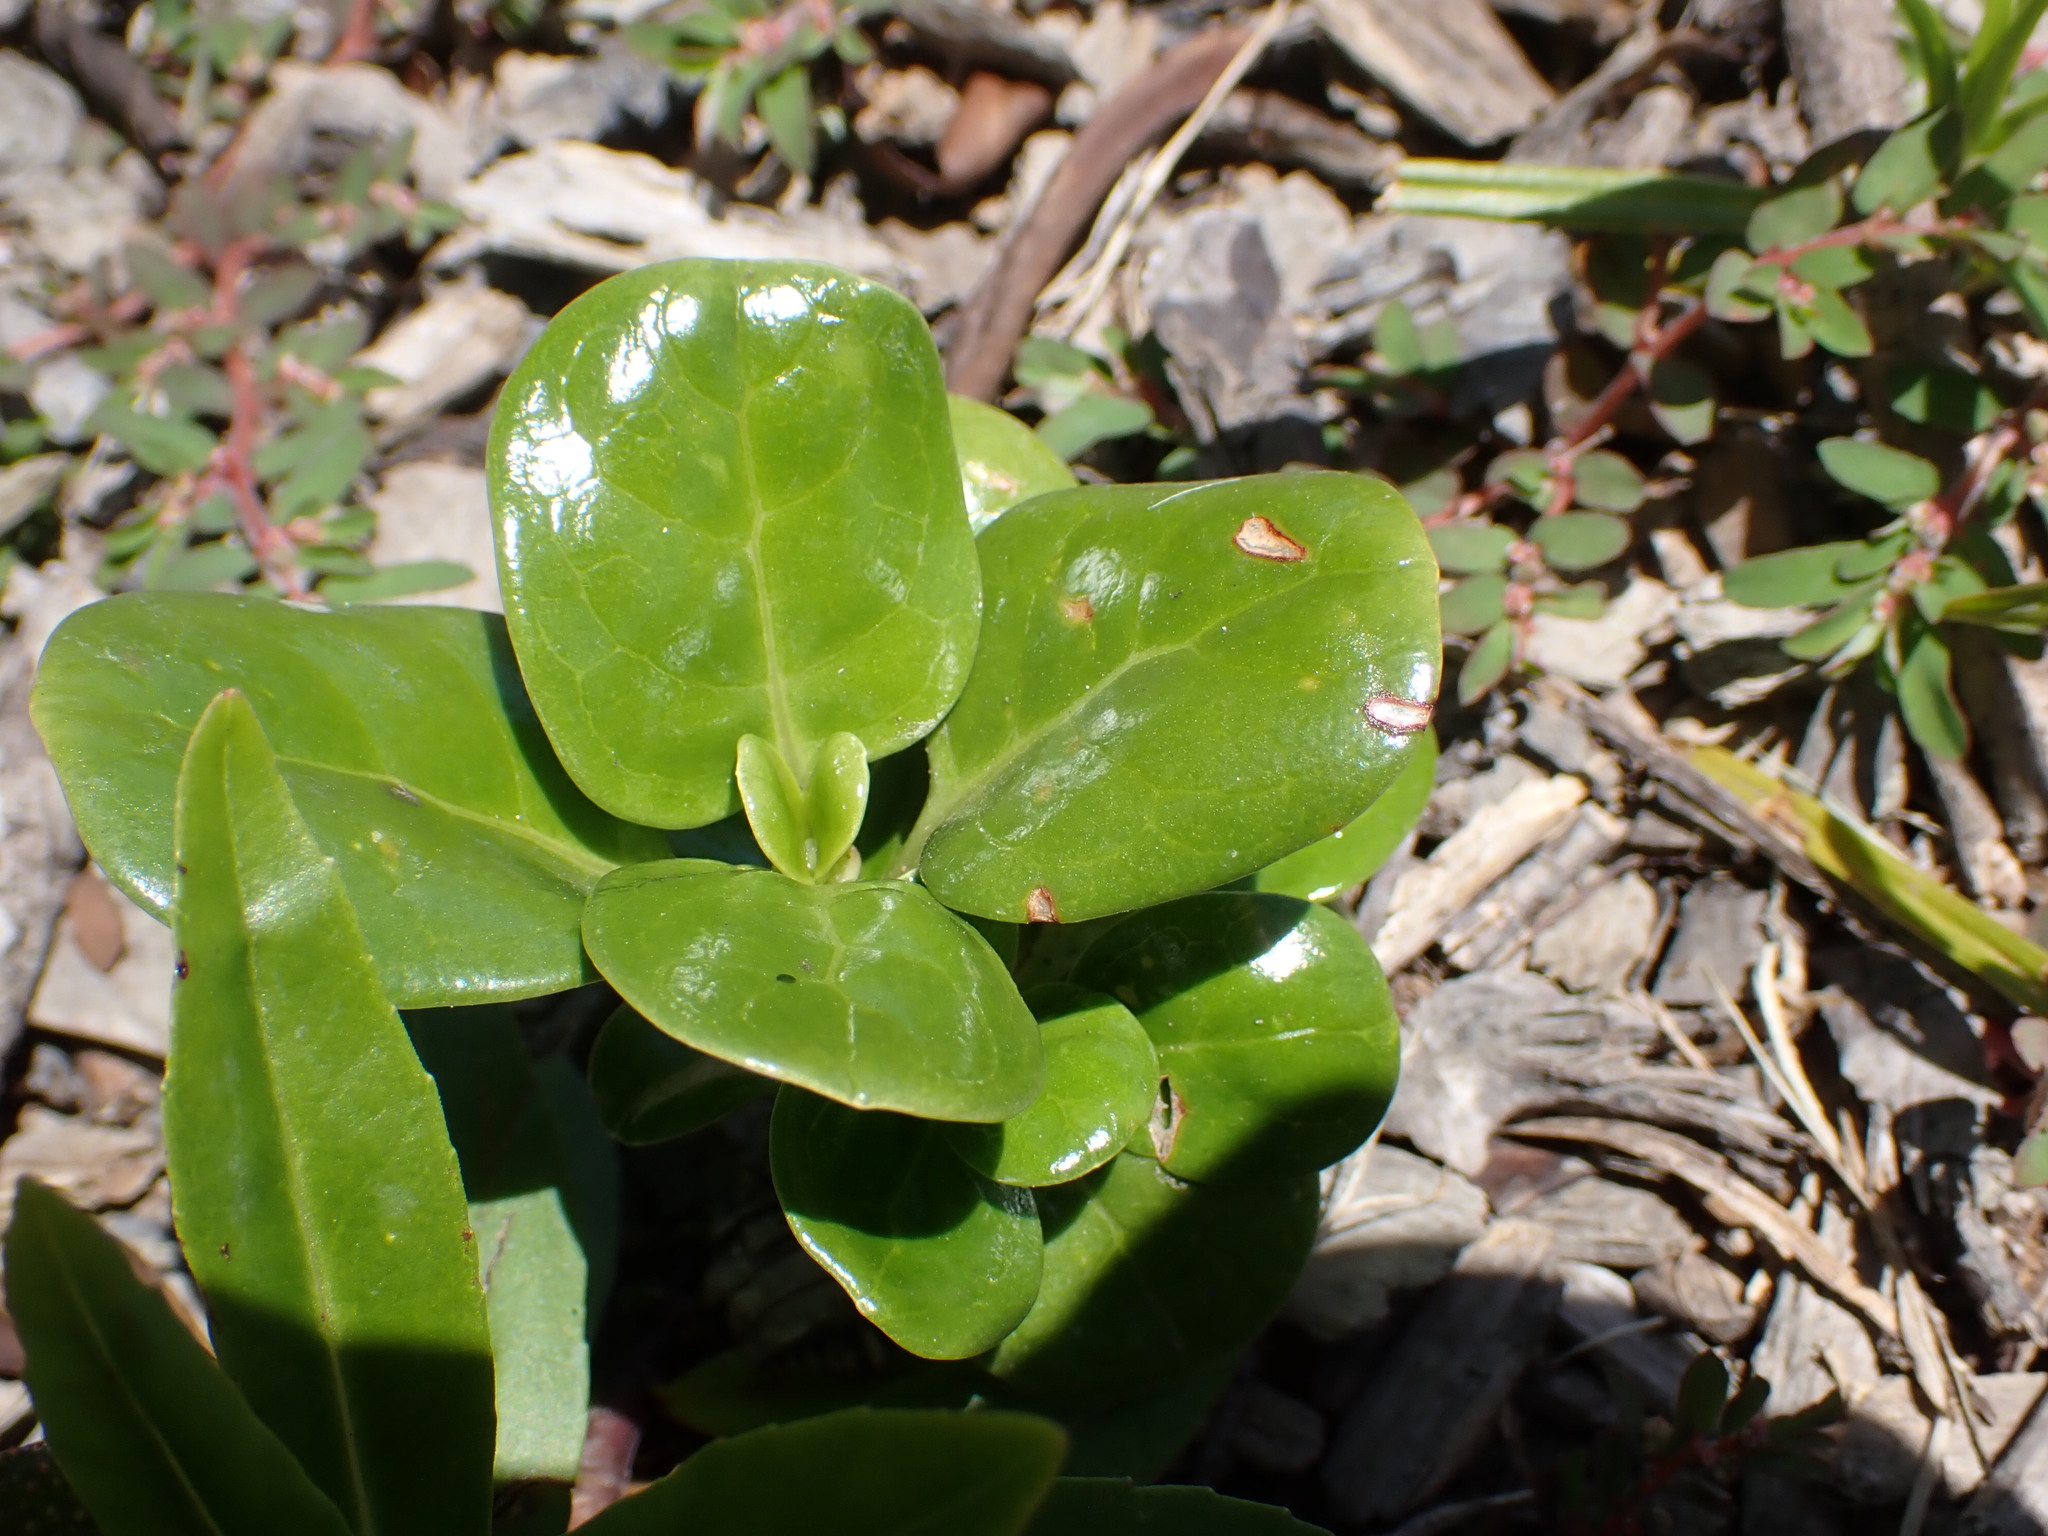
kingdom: Plantae
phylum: Tracheophyta
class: Magnoliopsida
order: Gentianales
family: Rubiaceae
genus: Coprosma
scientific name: Coprosma repens
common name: Tree bedstraw
